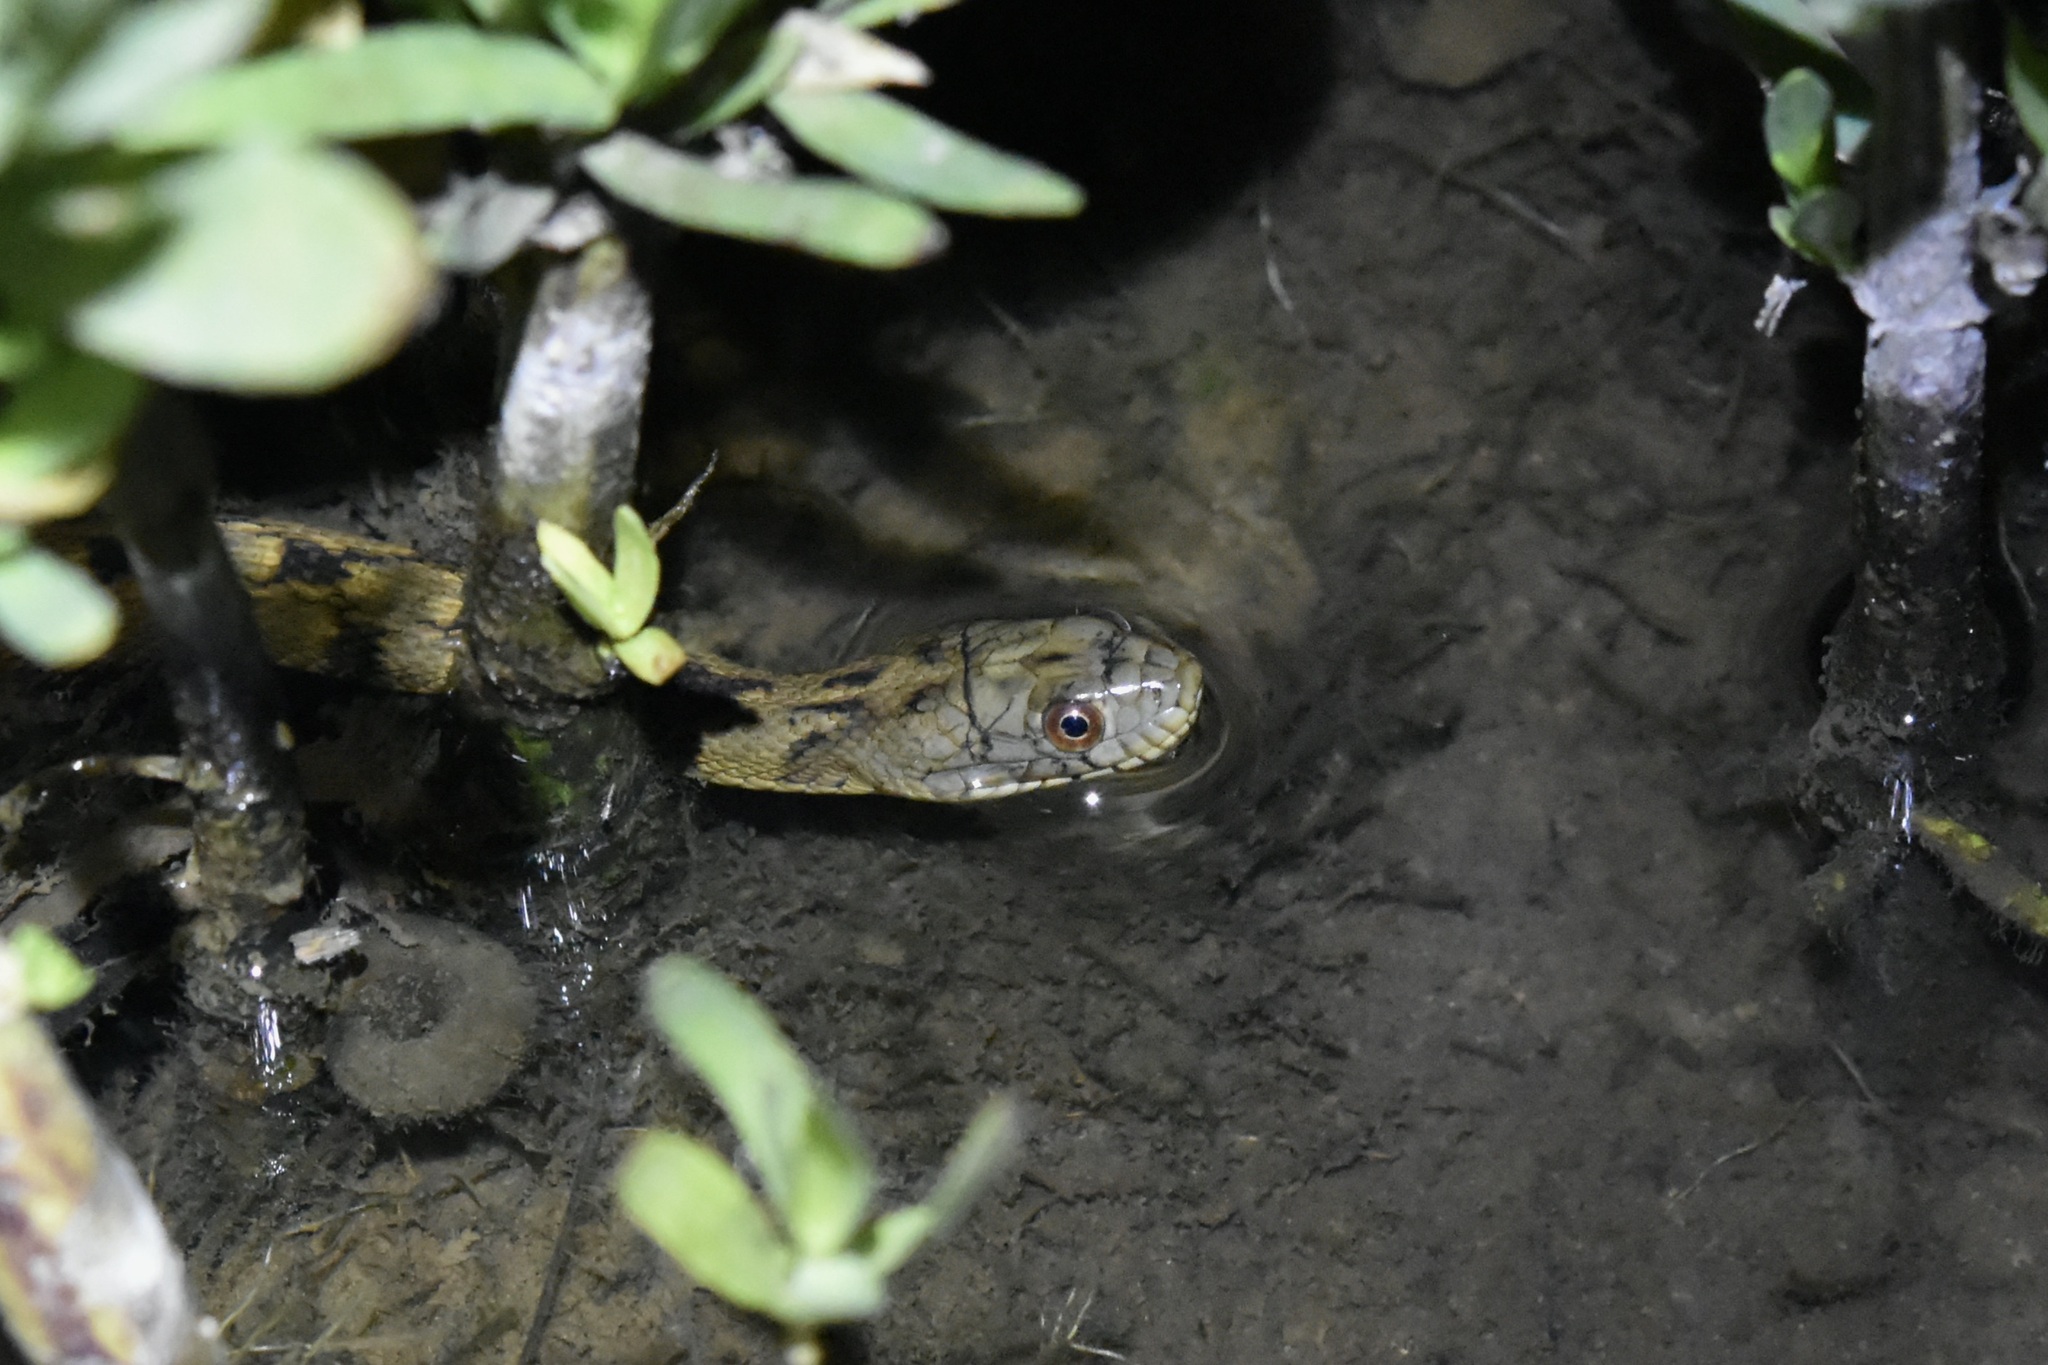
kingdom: Animalia
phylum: Chordata
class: Squamata
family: Colubridae
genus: Nerodia
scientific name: Nerodia rhombifer
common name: Diamondback water snake
